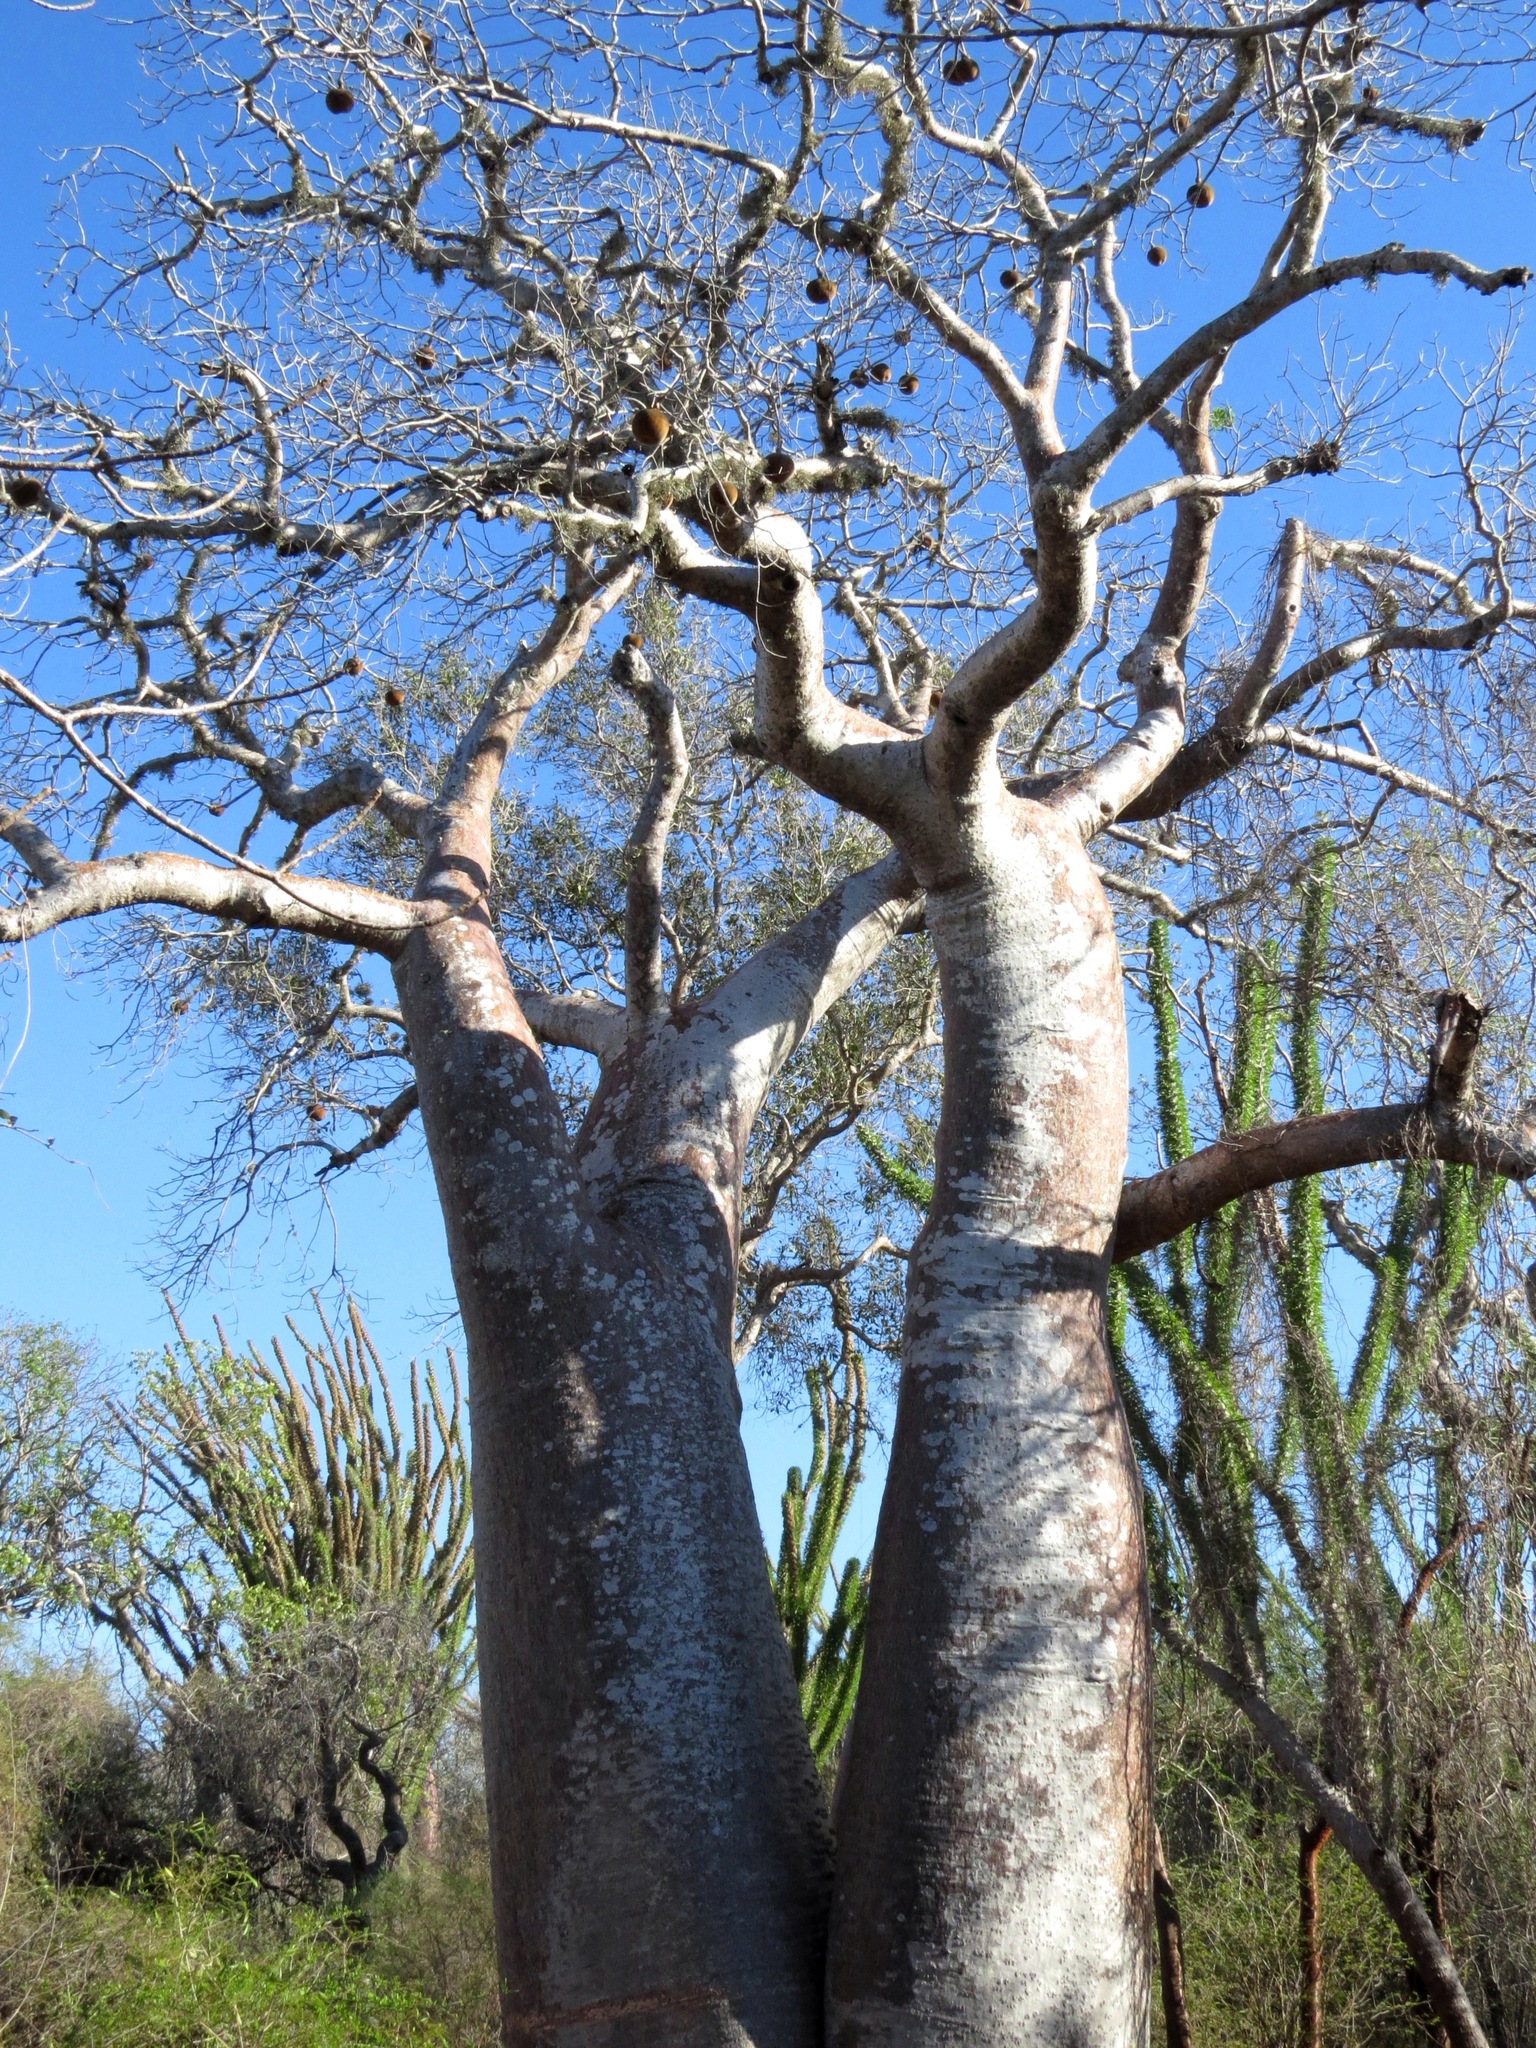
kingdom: Plantae
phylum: Tracheophyta
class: Magnoliopsida
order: Malvales
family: Malvaceae
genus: Adansonia
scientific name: Adansonia rubrostipa
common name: Fony baobab
